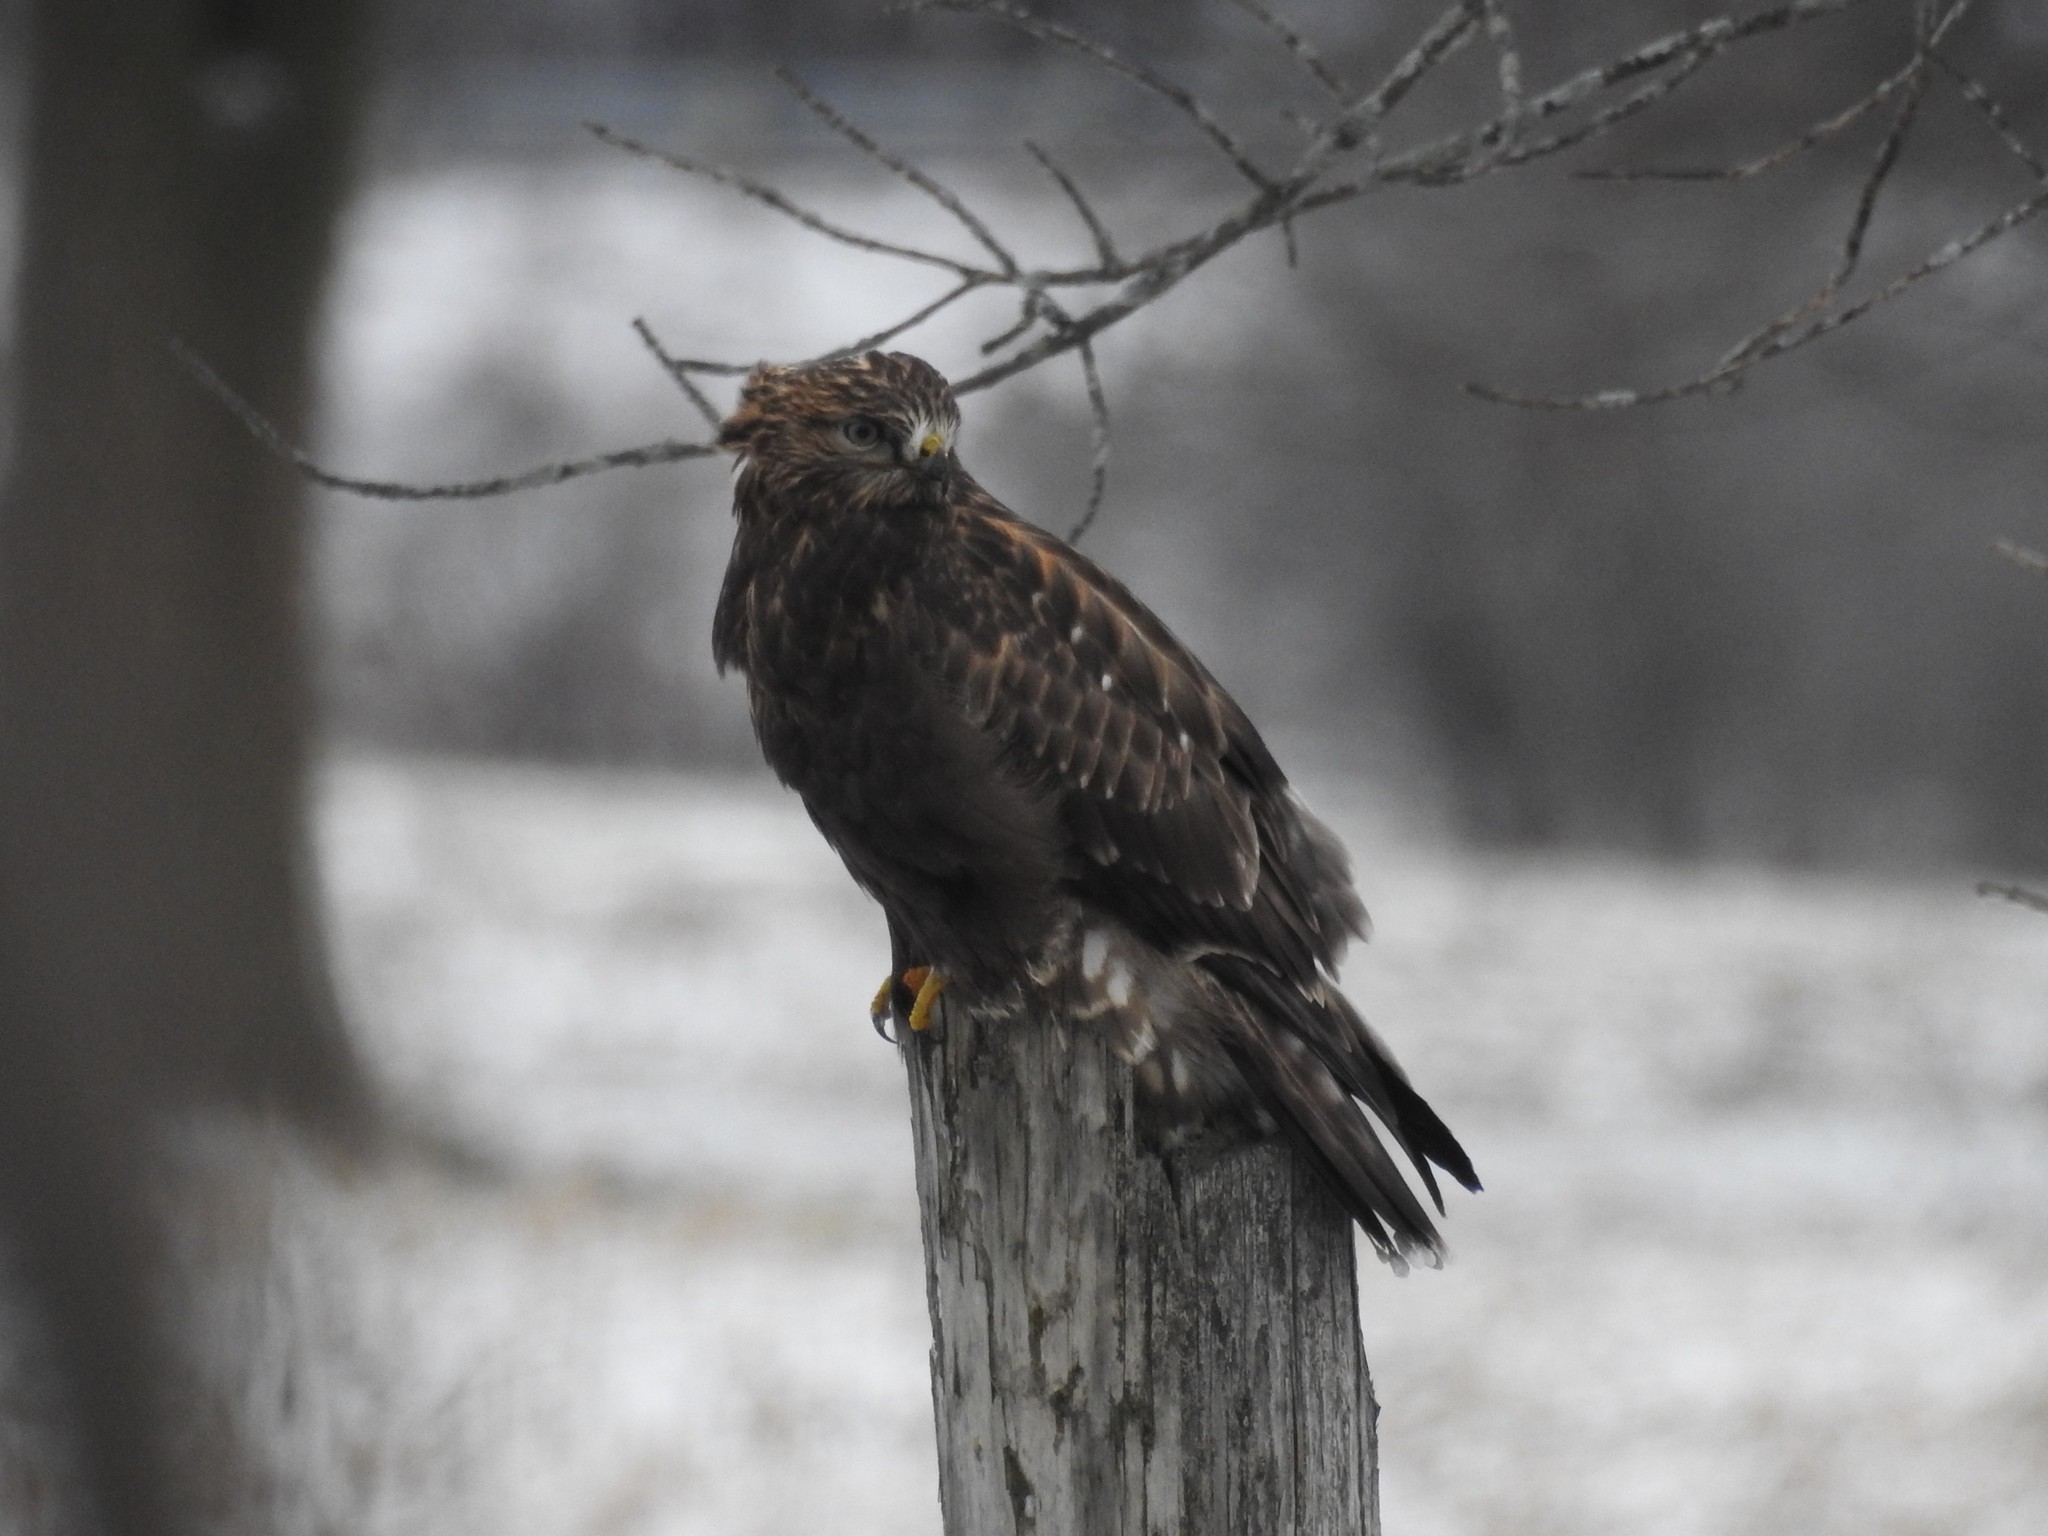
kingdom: Animalia
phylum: Chordata
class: Aves
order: Accipitriformes
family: Accipitridae
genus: Buteo
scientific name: Buteo lagopus
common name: Rough-legged buzzard
